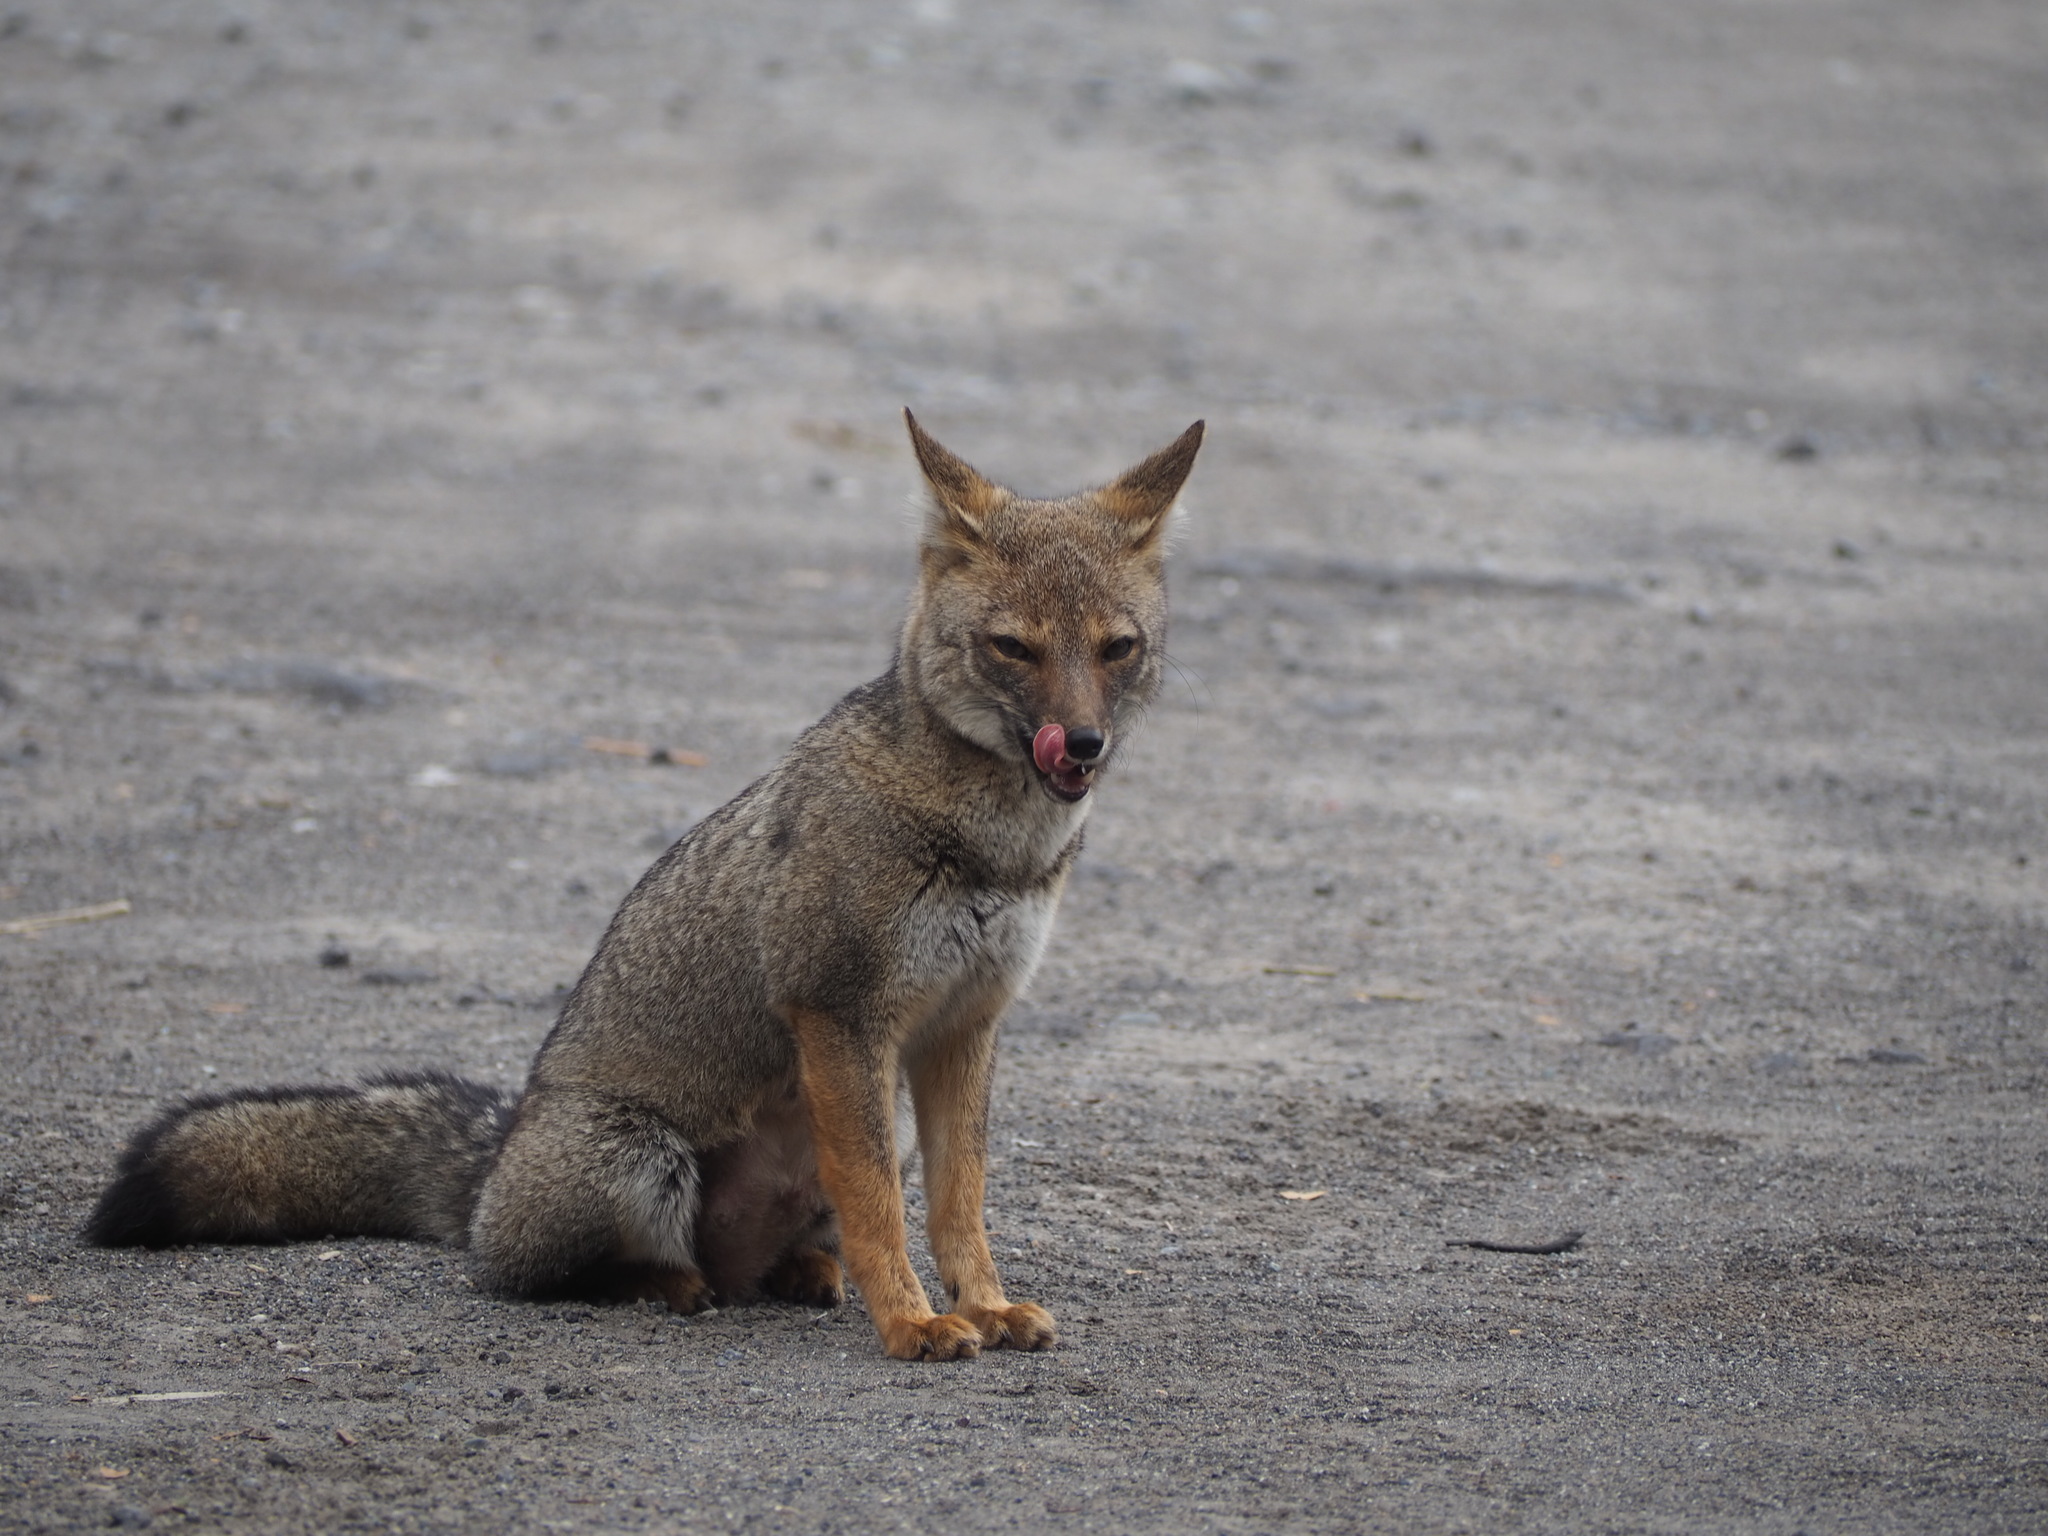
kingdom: Animalia
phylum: Chordata
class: Mammalia
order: Carnivora
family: Canidae
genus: Lycalopex
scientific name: Lycalopex gymnocercus
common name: Pampas fox
